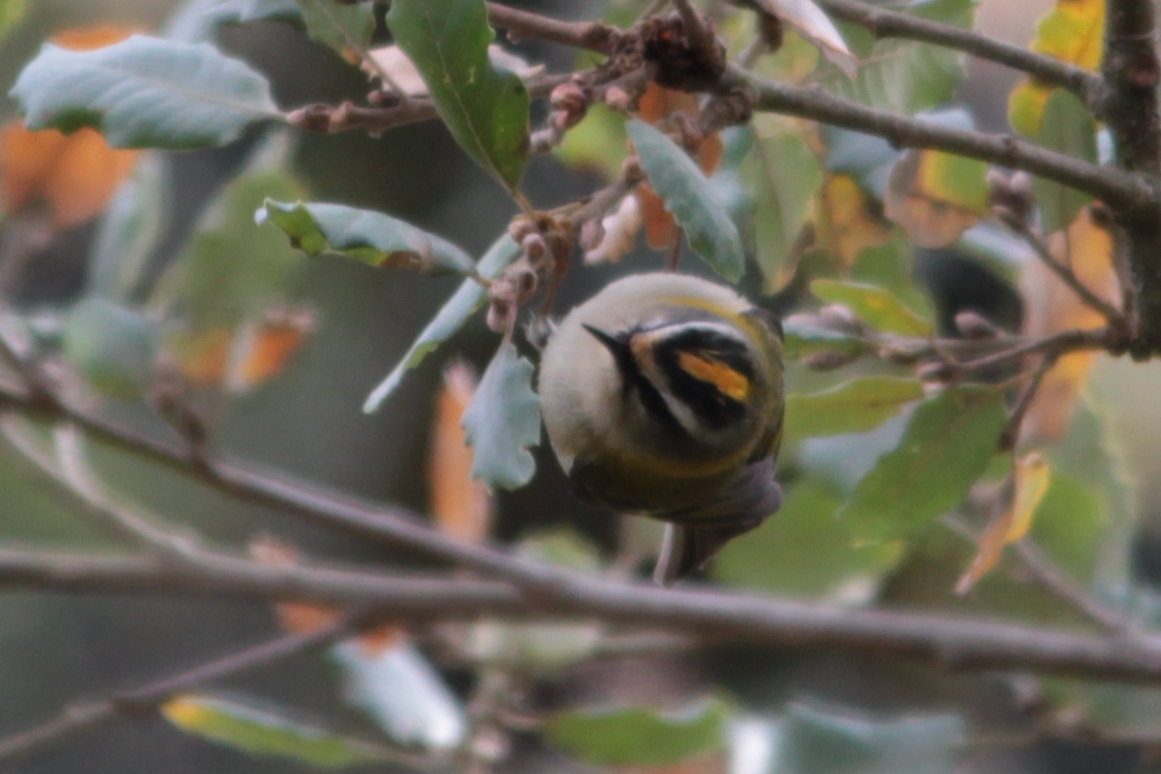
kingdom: Animalia
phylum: Chordata
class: Aves
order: Passeriformes
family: Regulidae
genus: Regulus
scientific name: Regulus ignicapilla
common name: Firecrest
